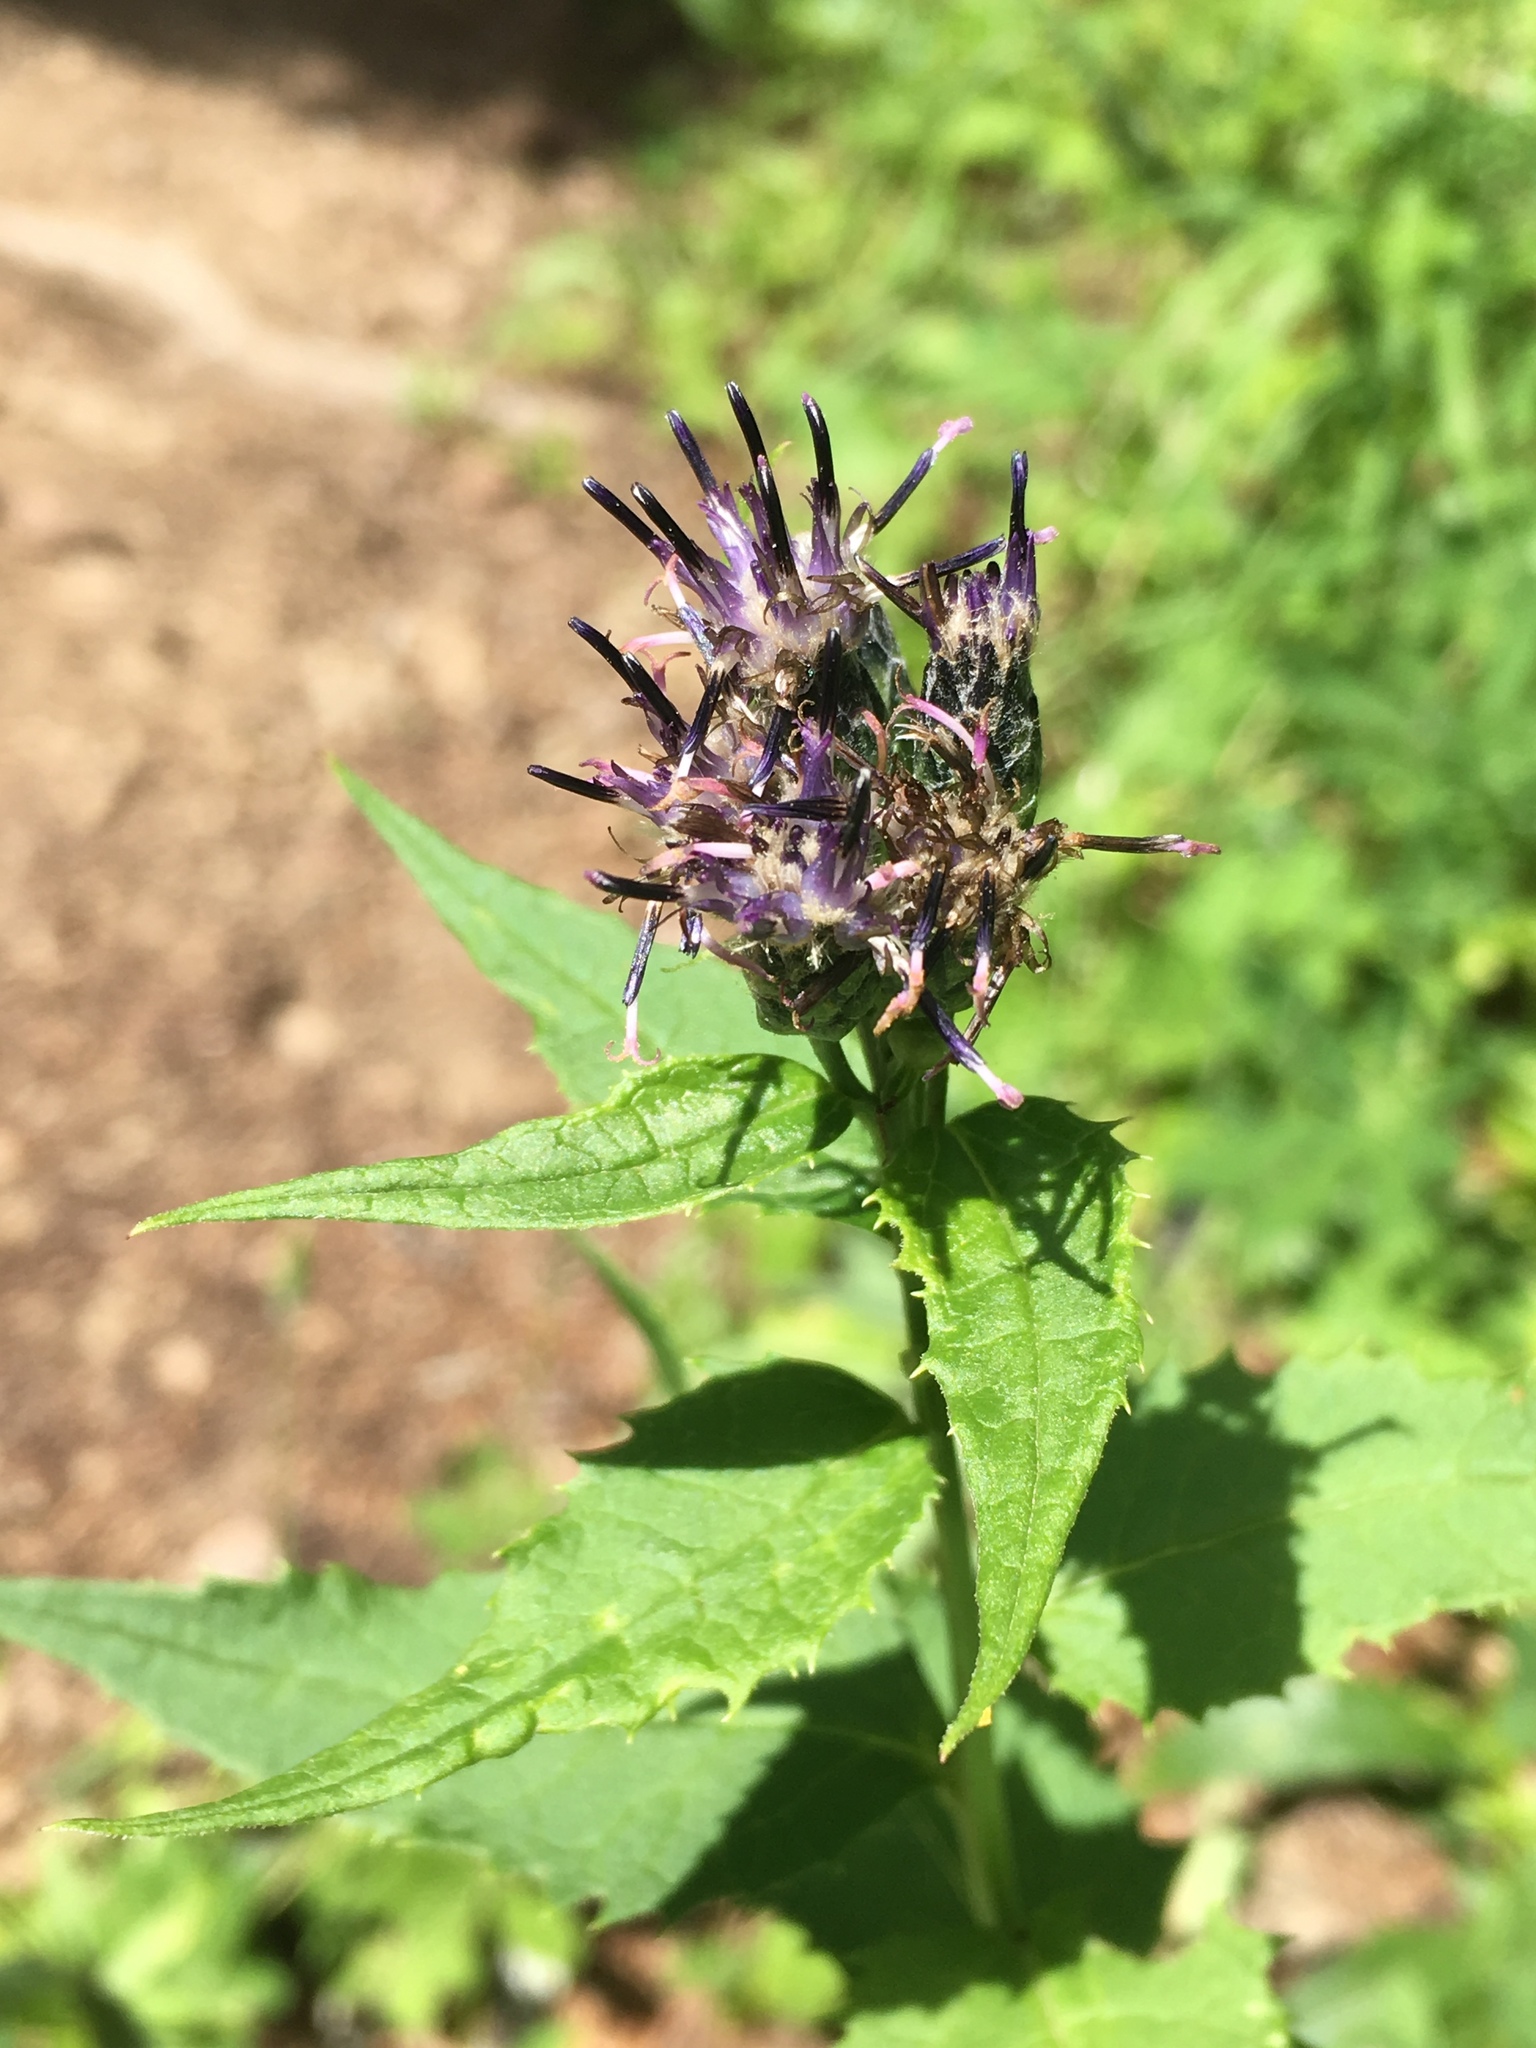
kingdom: Plantae
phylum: Tracheophyta
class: Magnoliopsida
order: Asterales
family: Asteraceae
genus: Saussurea
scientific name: Saussurea americana
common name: American saw-wort
